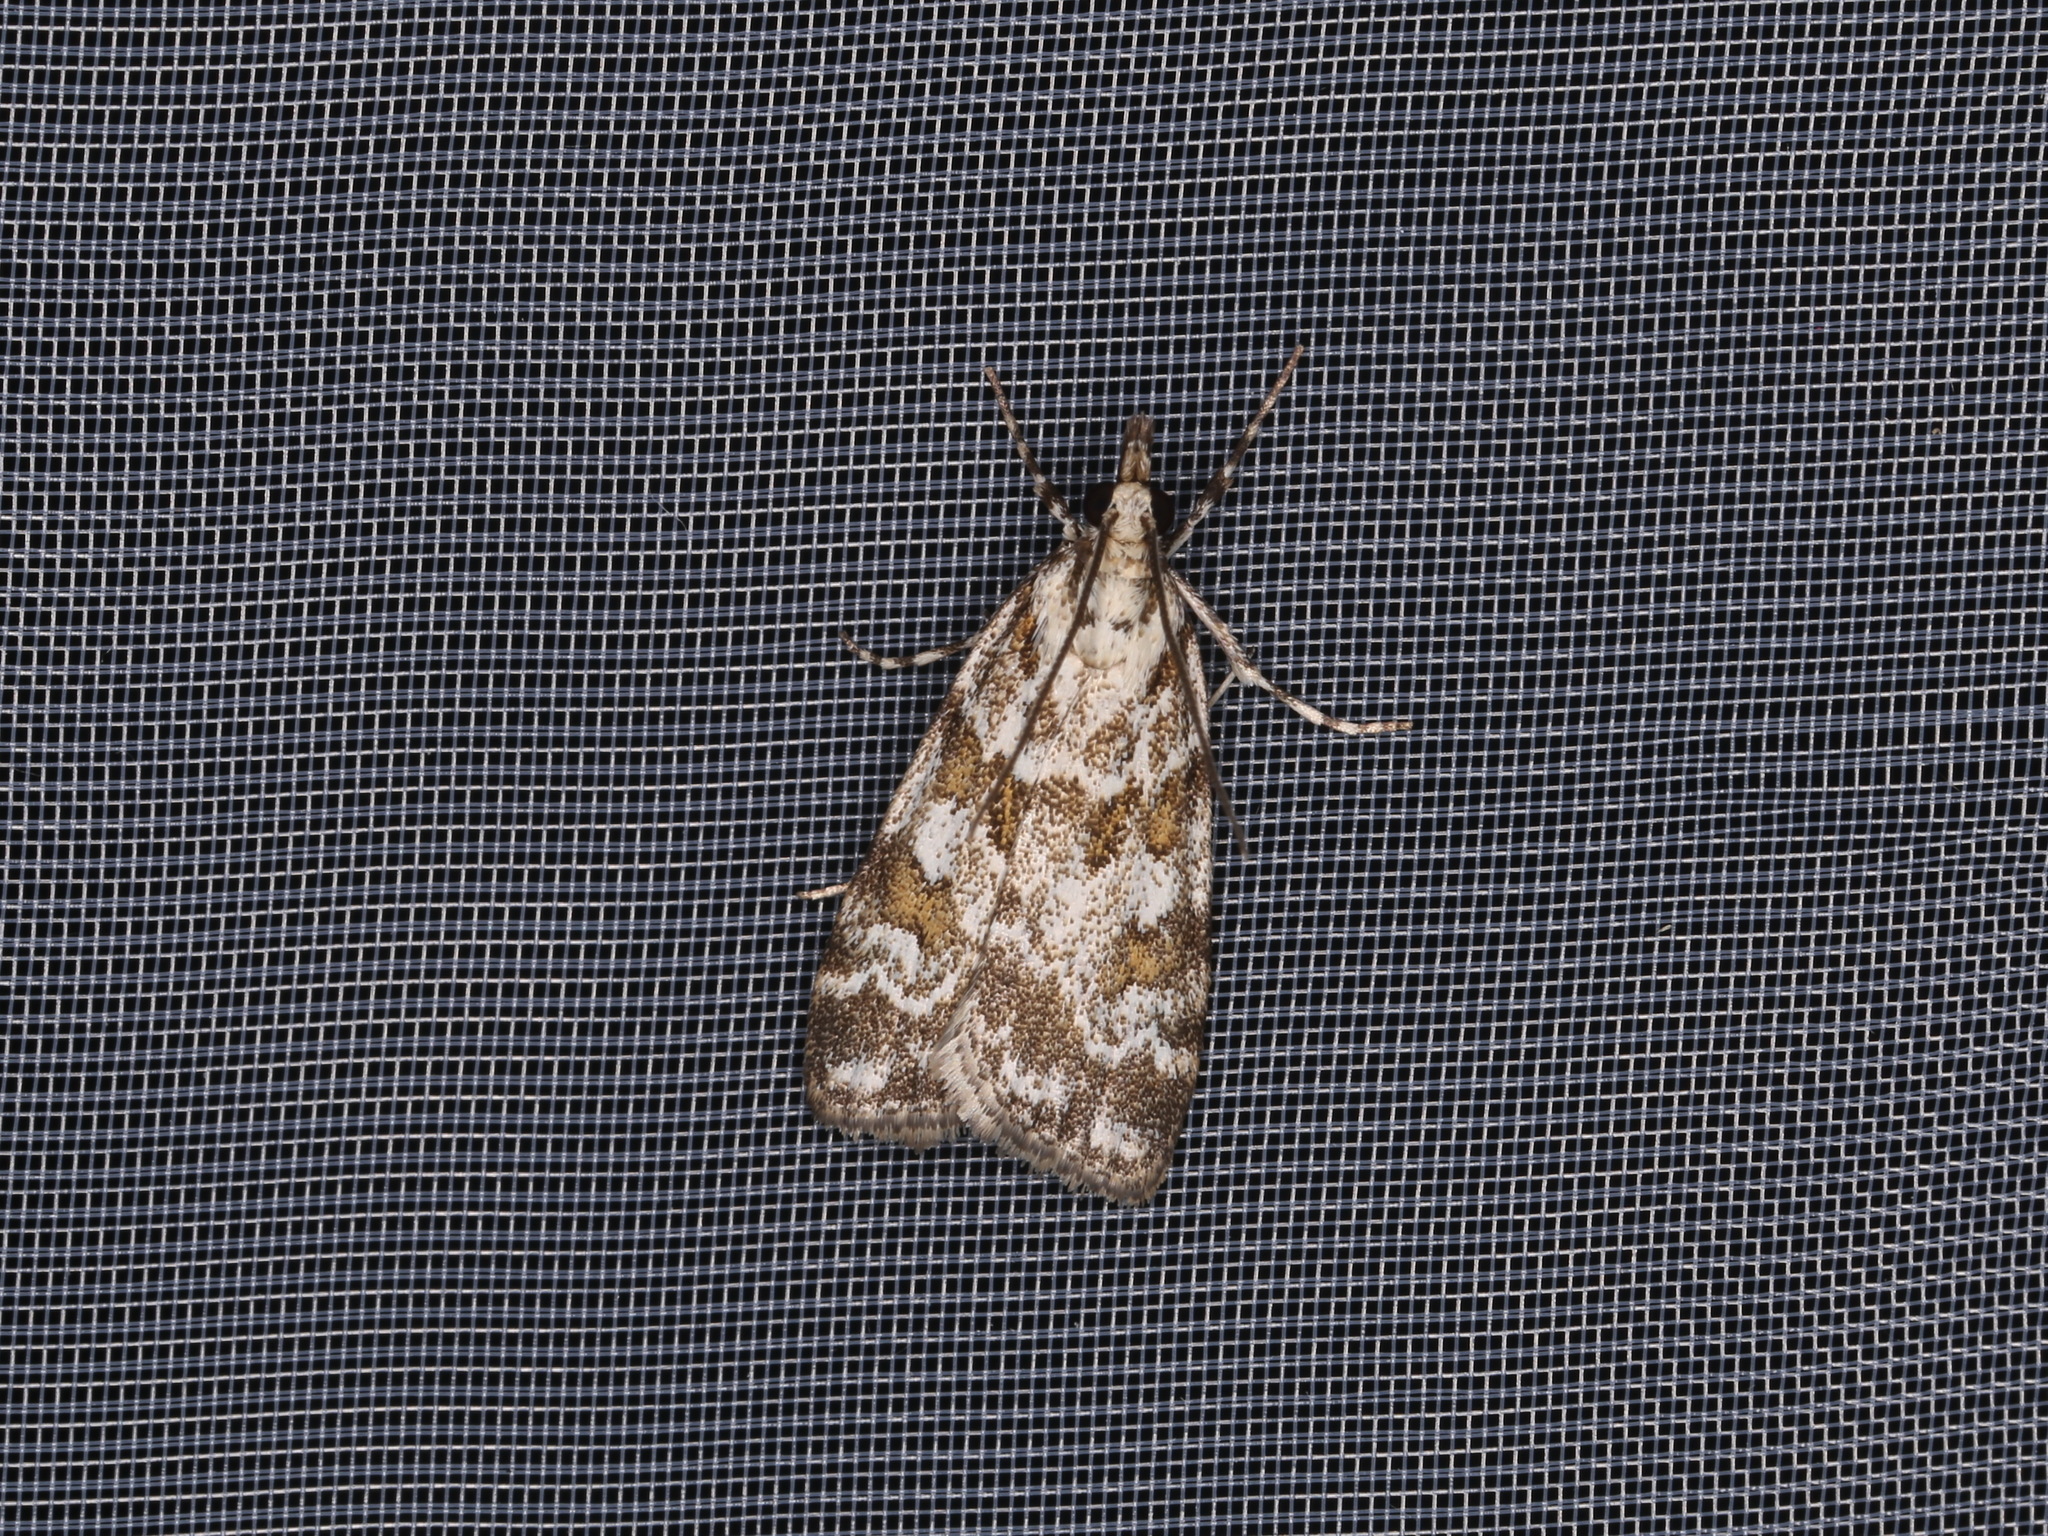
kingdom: Animalia
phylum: Arthropoda
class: Insecta
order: Lepidoptera
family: Crambidae
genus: Scoparia
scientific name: Scoparia pyralella
